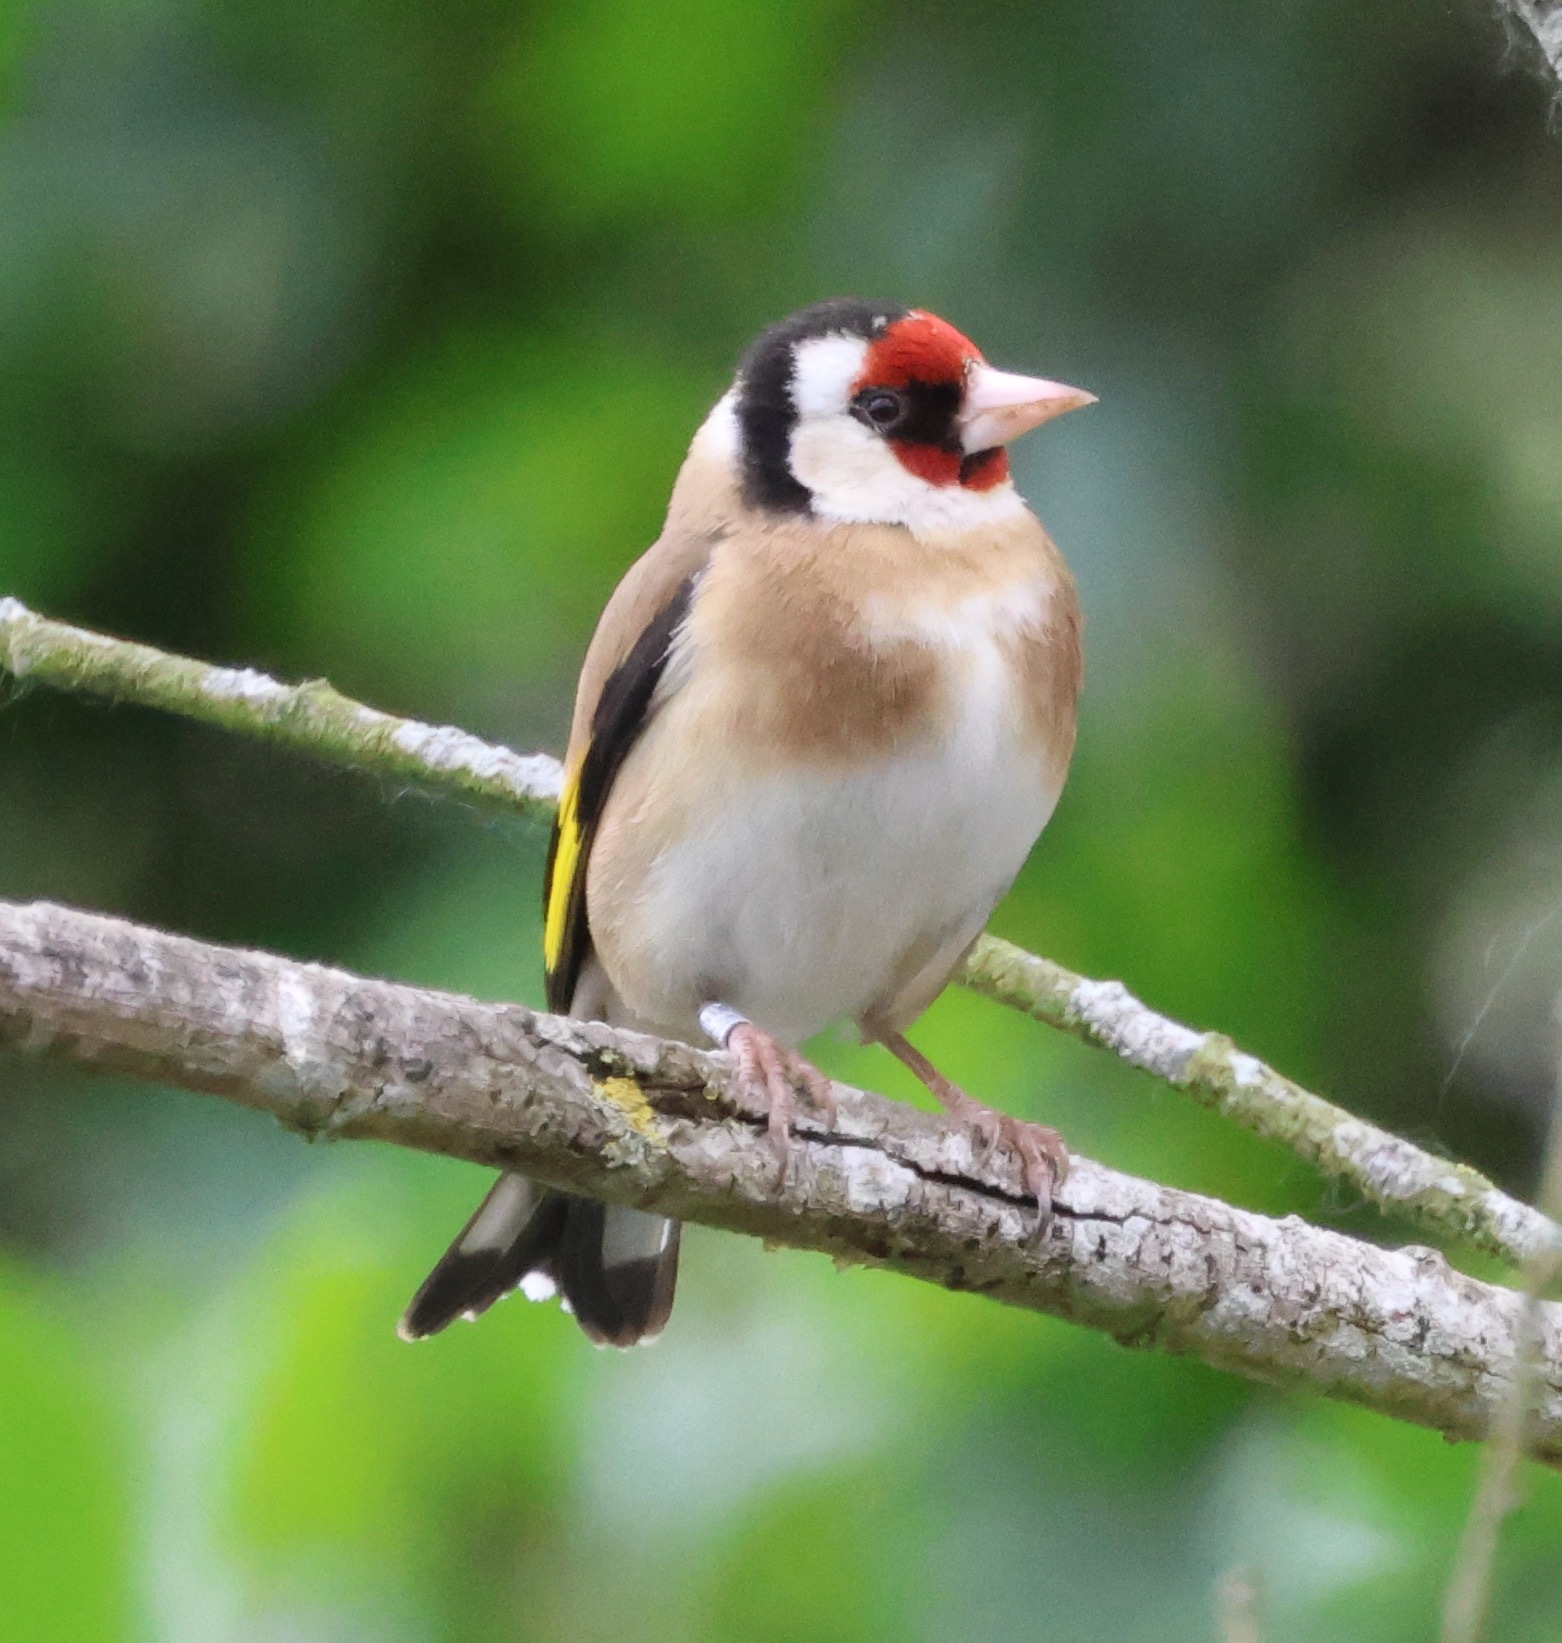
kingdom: Animalia
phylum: Chordata
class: Aves
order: Passeriformes
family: Fringillidae
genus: Carduelis
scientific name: Carduelis carduelis
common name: European goldfinch
